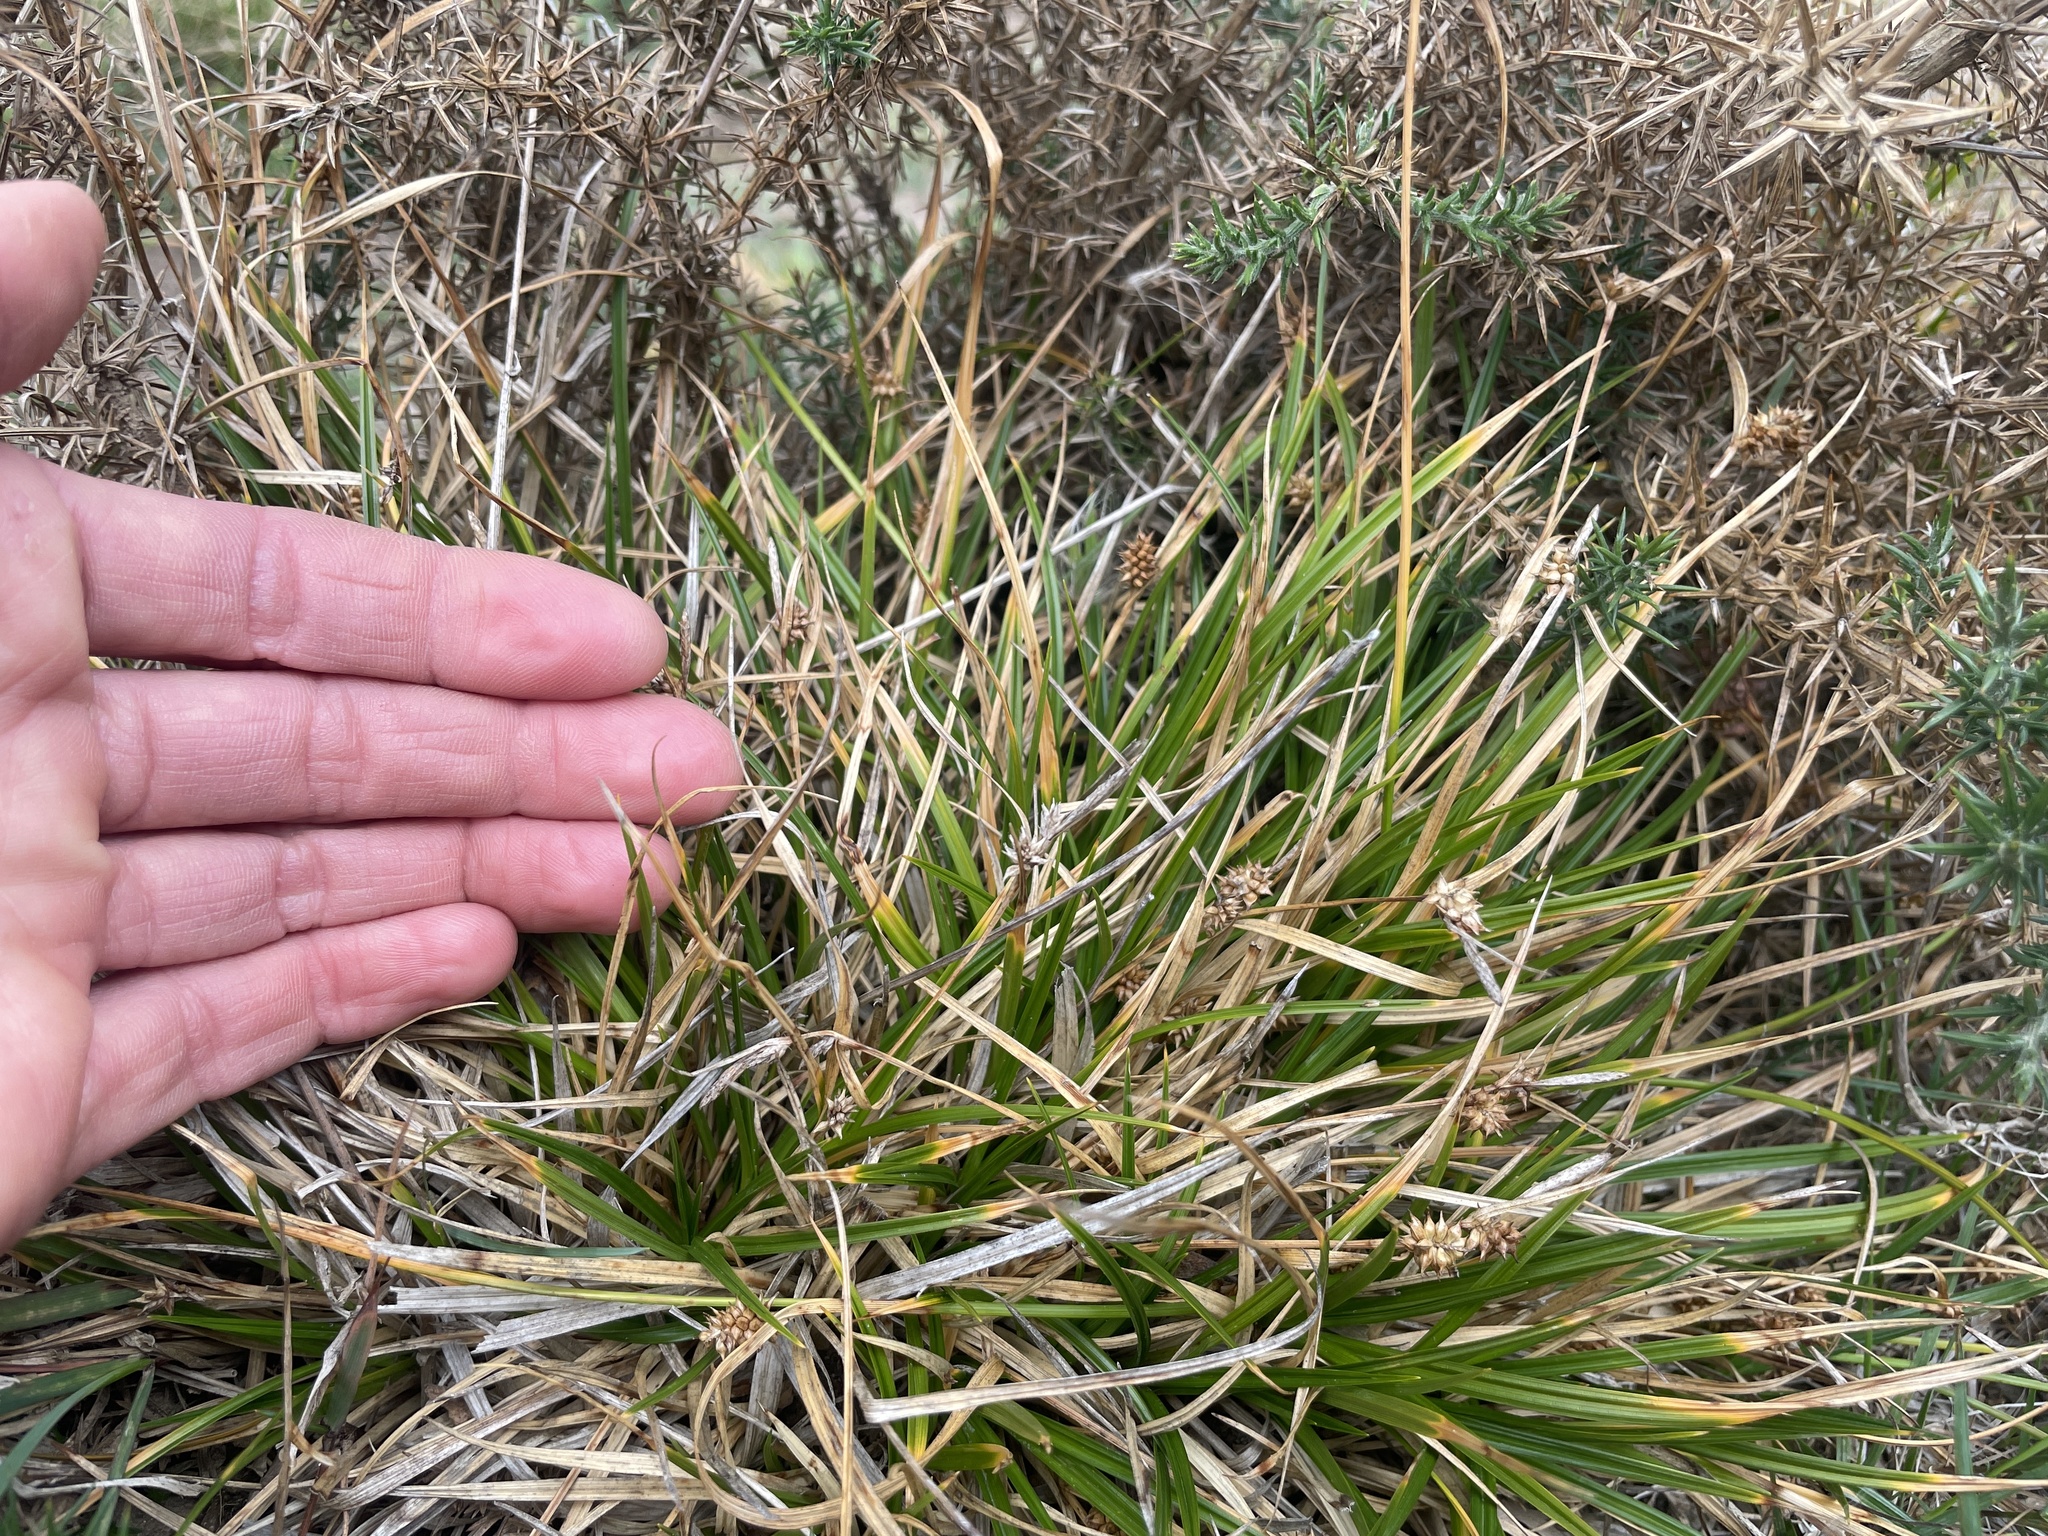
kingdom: Plantae
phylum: Tracheophyta
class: Liliopsida
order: Poales
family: Cyperaceae
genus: Carex
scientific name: Carex demissa
